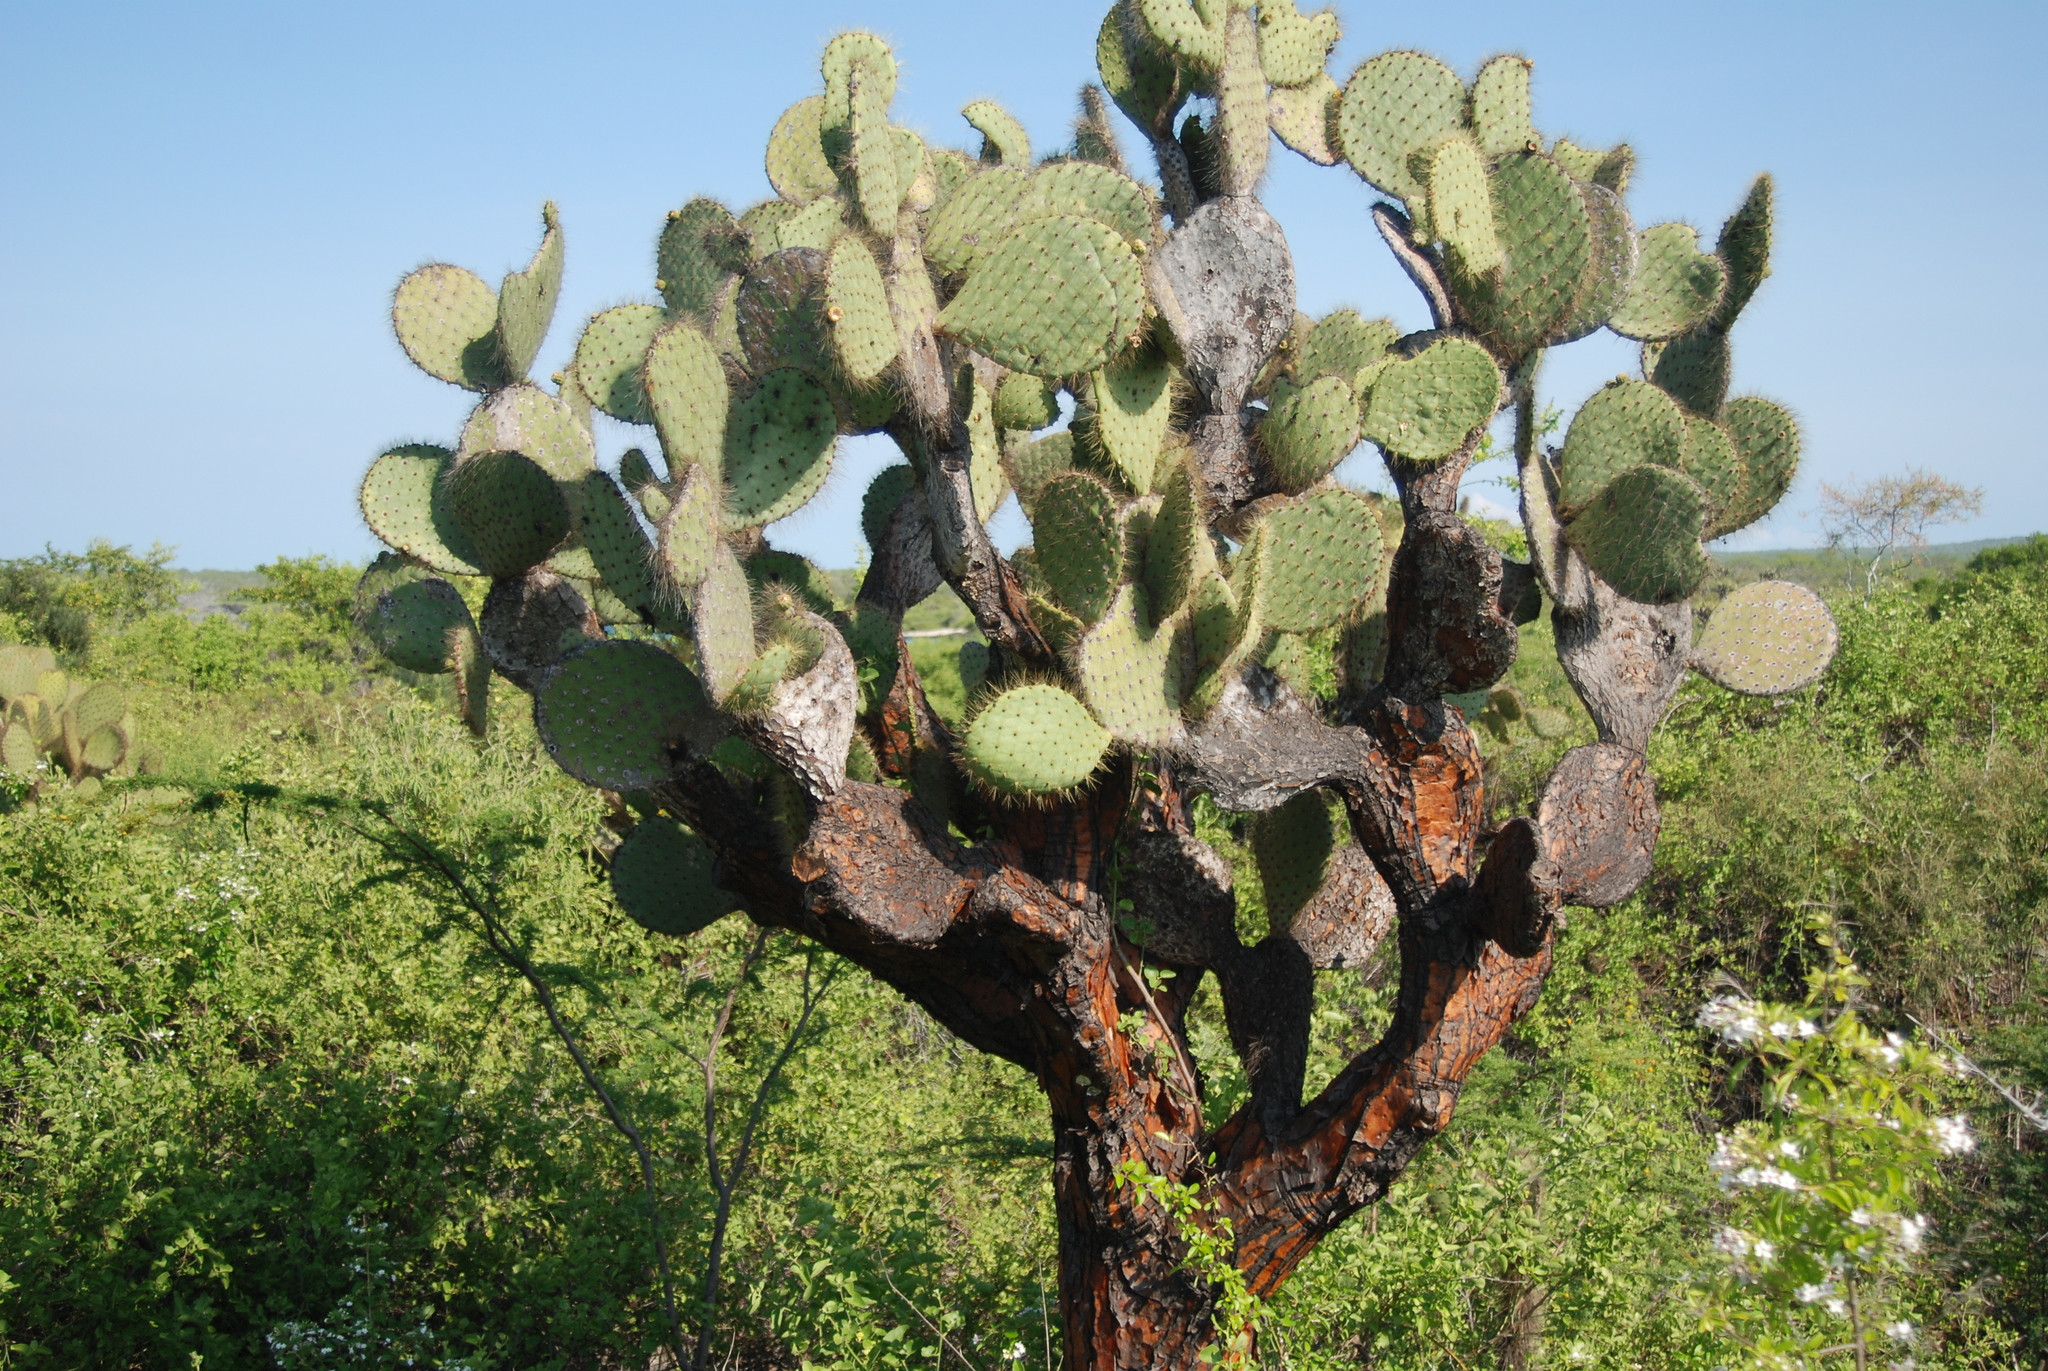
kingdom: Plantae
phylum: Tracheophyta
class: Magnoliopsida
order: Caryophyllales
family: Cactaceae
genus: Opuntia
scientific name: Opuntia galapageia
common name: Galápagos prickly pear
